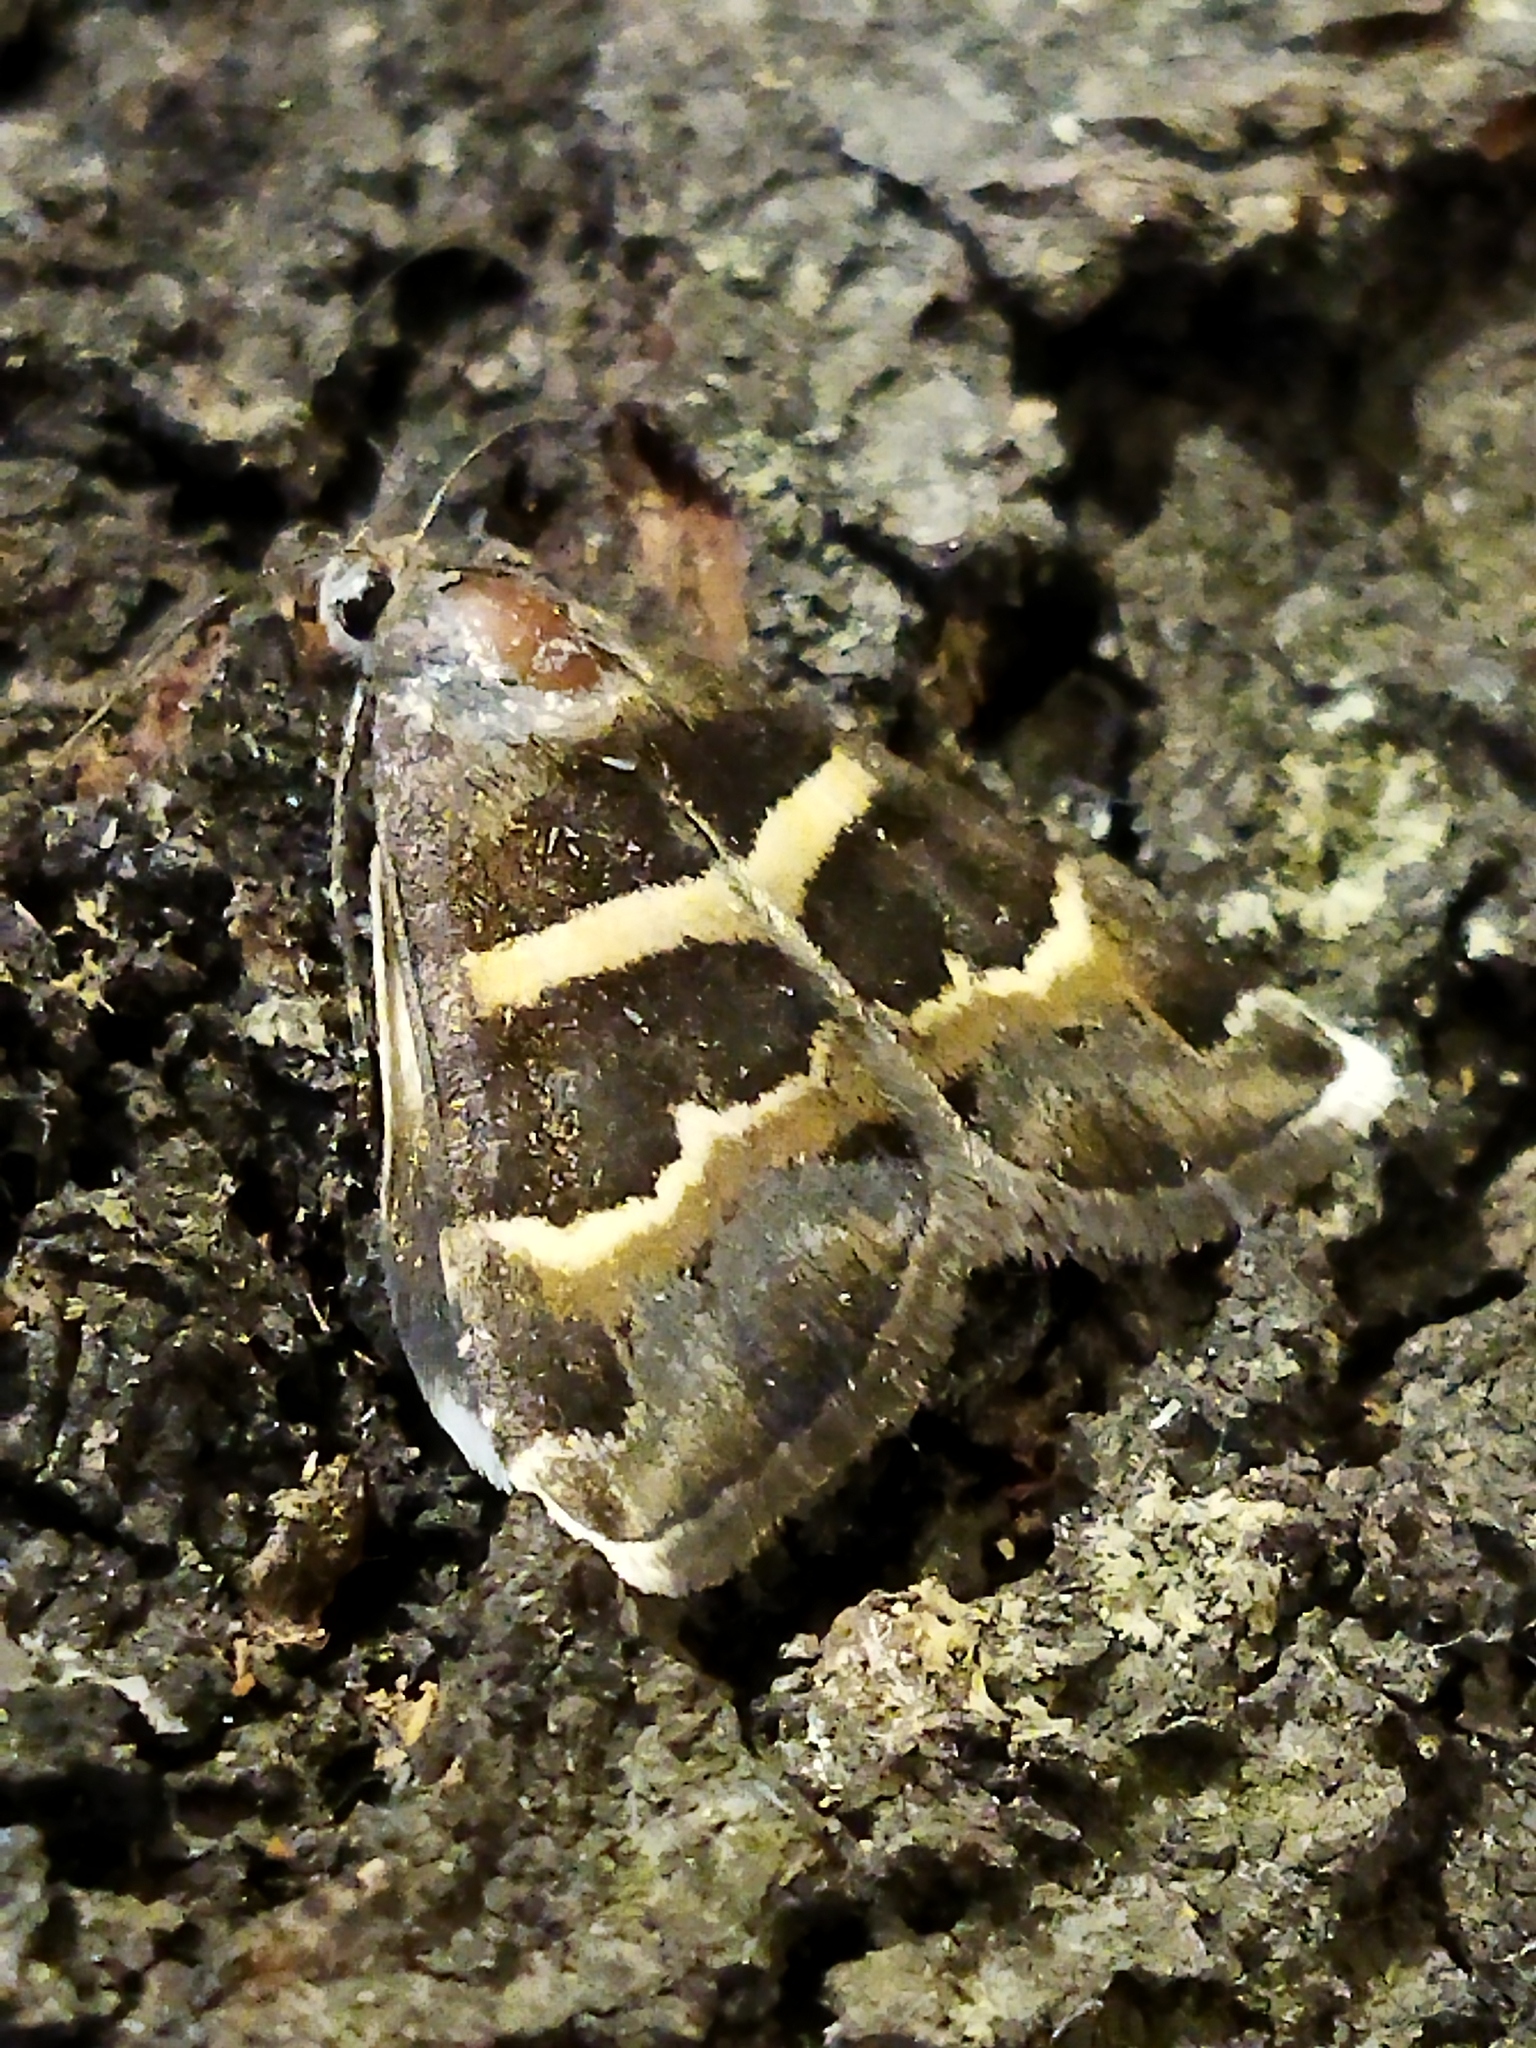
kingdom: Animalia
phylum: Arthropoda
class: Insecta
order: Lepidoptera
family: Erebidae
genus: Grammodes
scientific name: Grammodes stolida
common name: Geometrician
